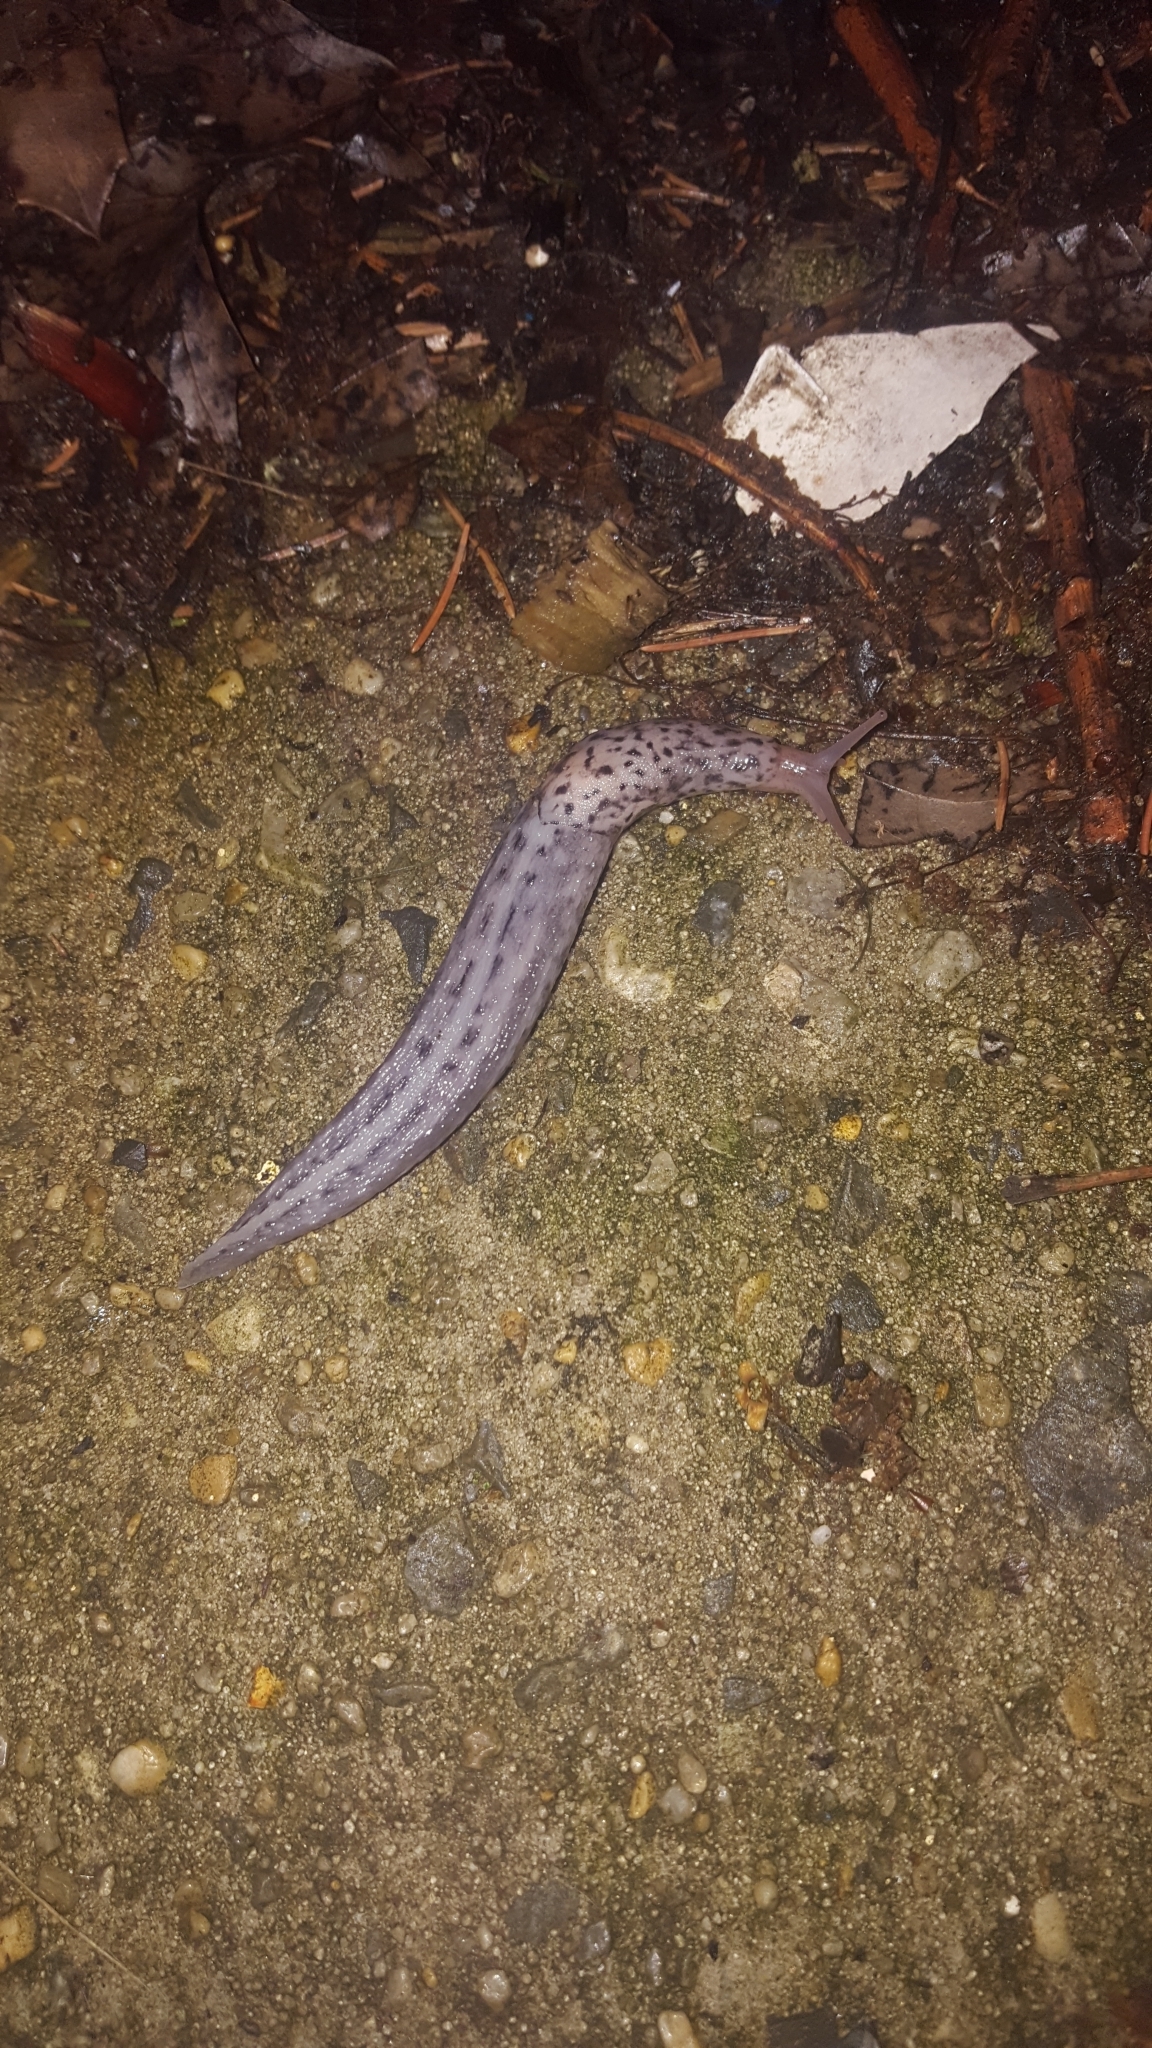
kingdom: Animalia
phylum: Mollusca
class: Gastropoda
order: Stylommatophora
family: Limacidae
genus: Limax
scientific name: Limax maximus
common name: Great grey slug
